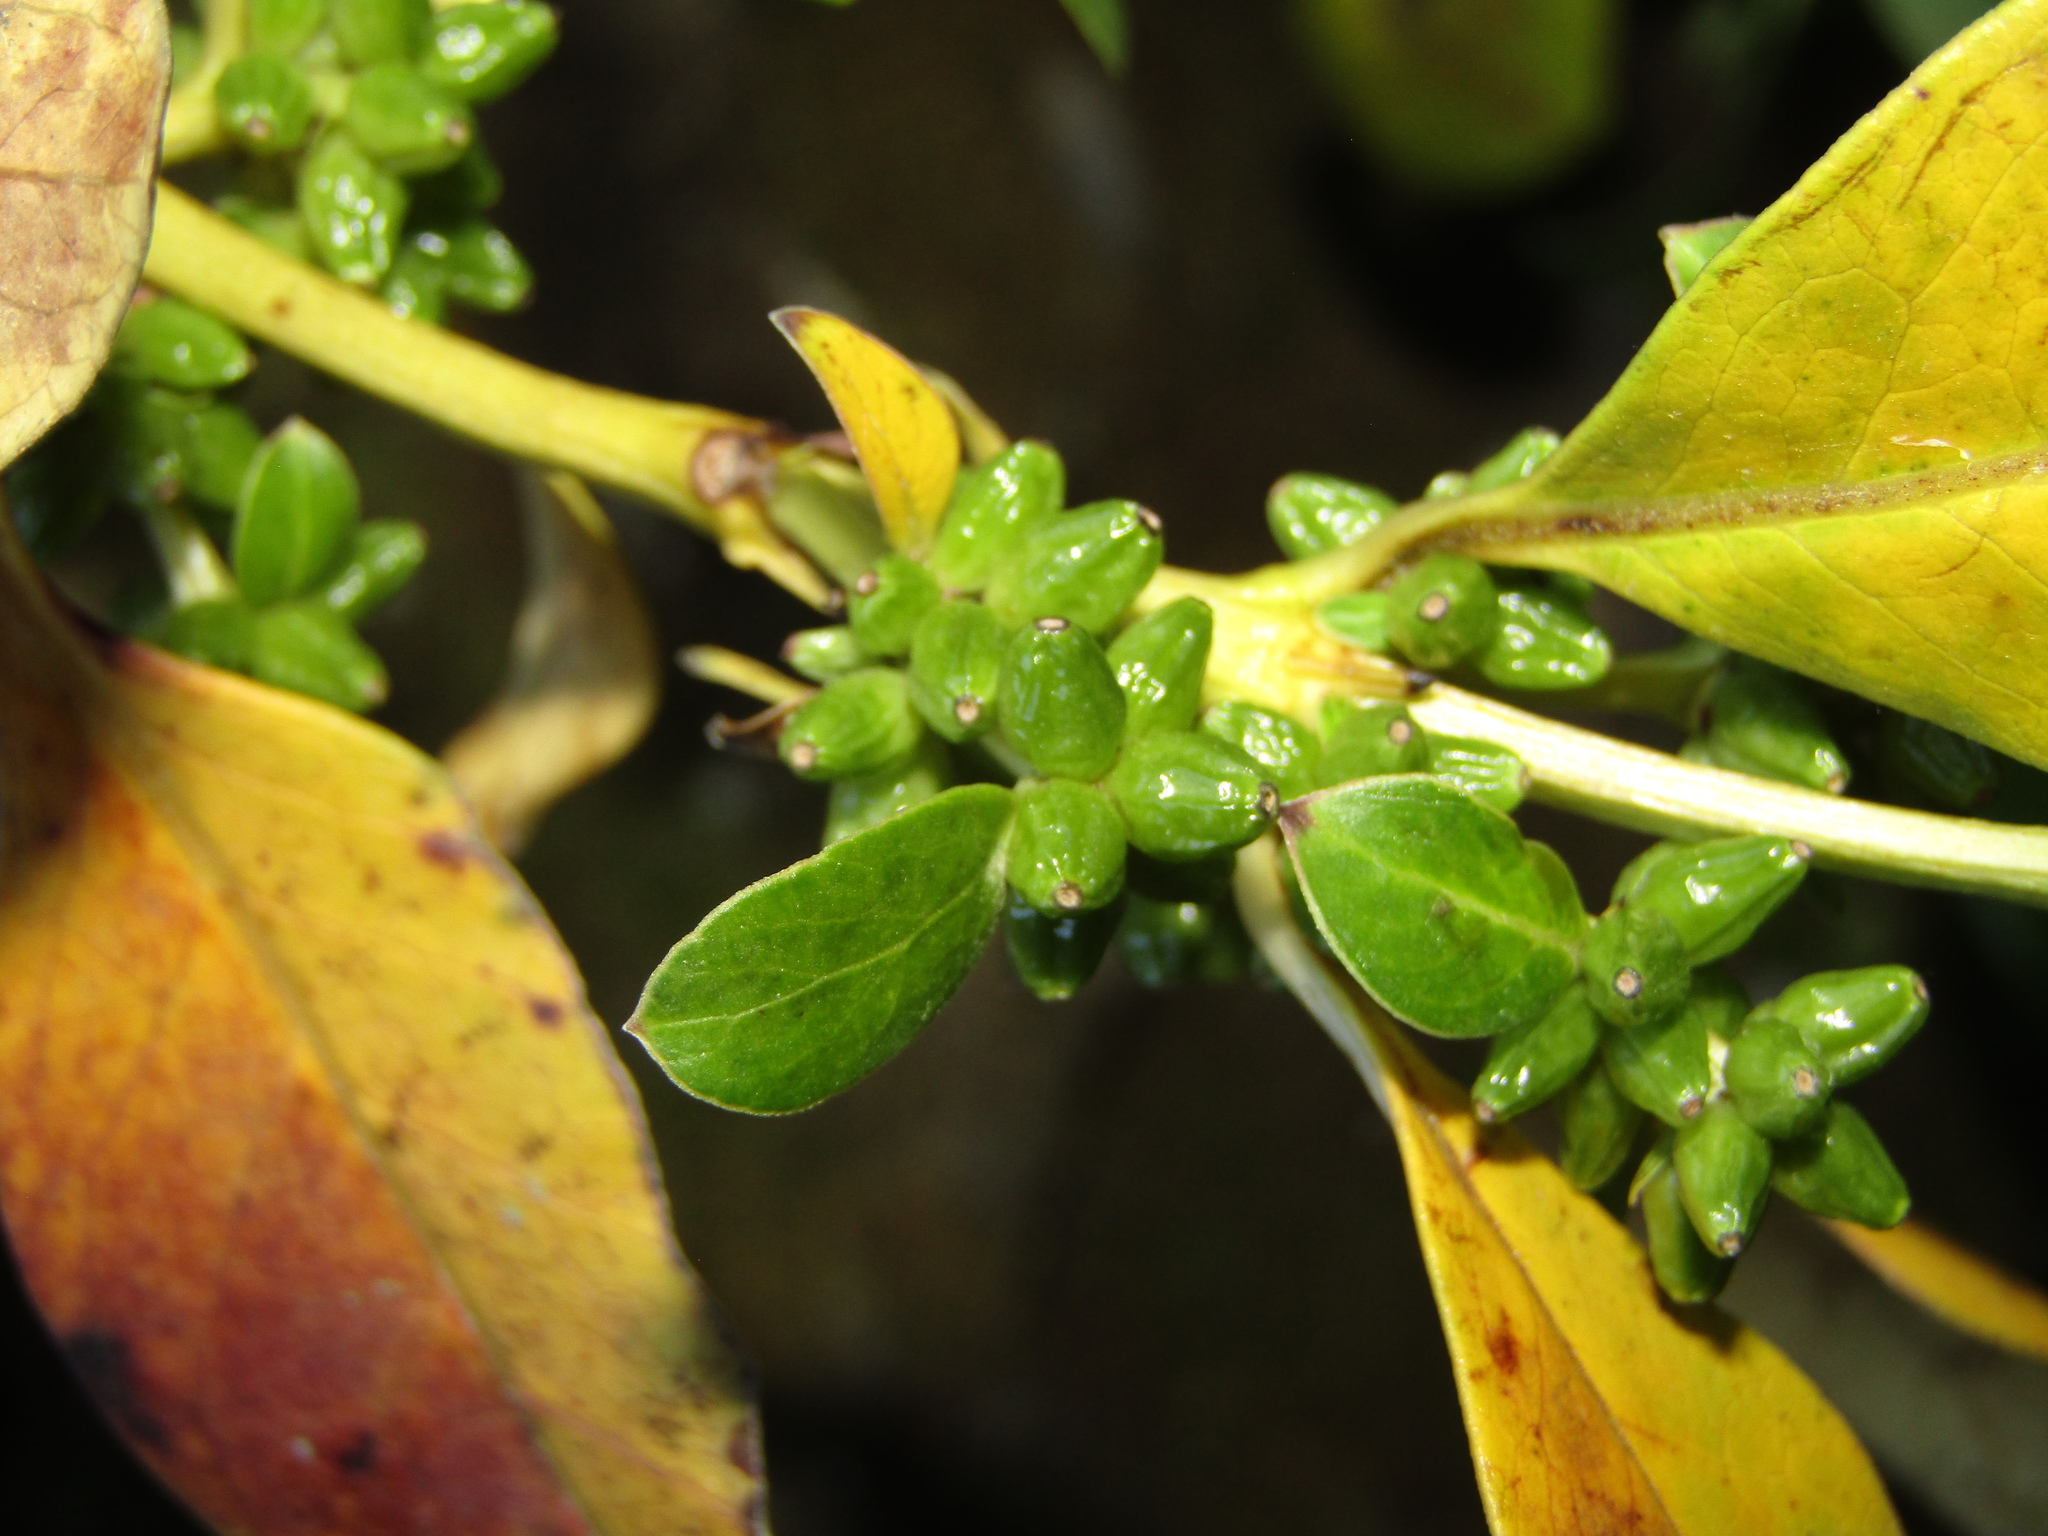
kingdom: Plantae
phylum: Tracheophyta
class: Magnoliopsida
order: Gentianales
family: Rubiaceae
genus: Coprosma
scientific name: Coprosma robusta
